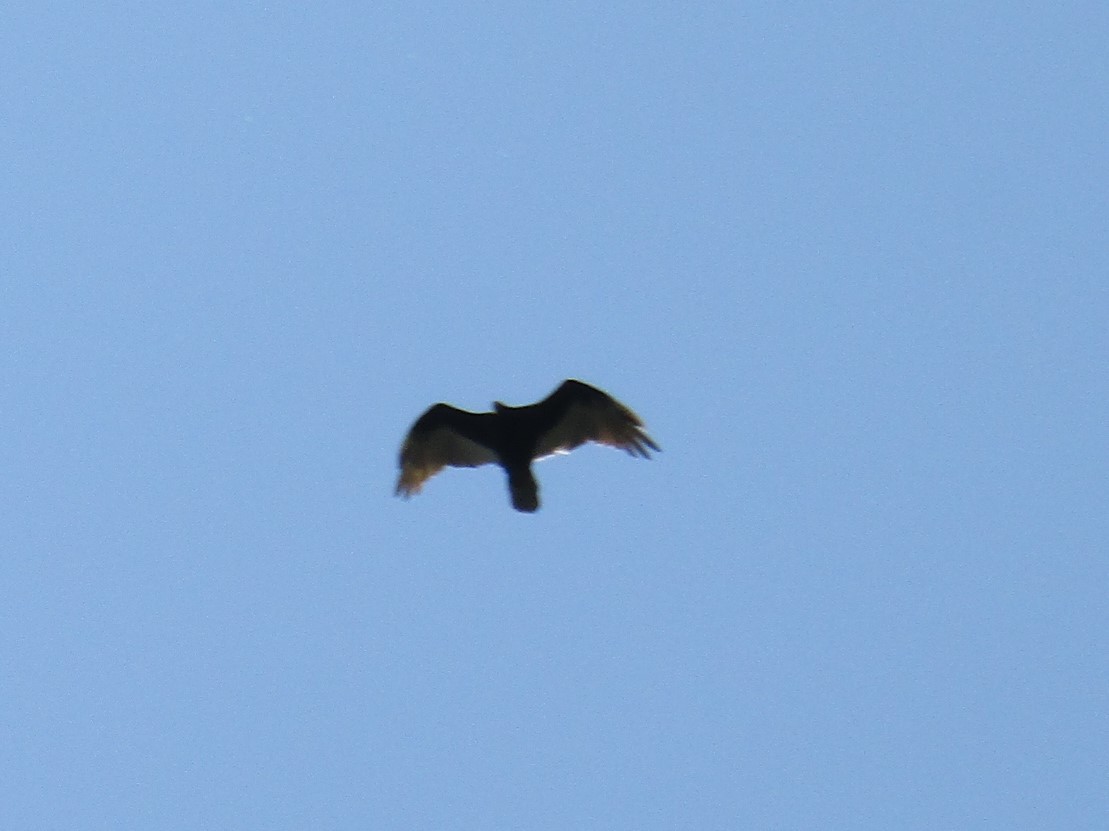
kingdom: Animalia
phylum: Chordata
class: Aves
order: Accipitriformes
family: Cathartidae
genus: Cathartes
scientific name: Cathartes aura
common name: Turkey vulture
